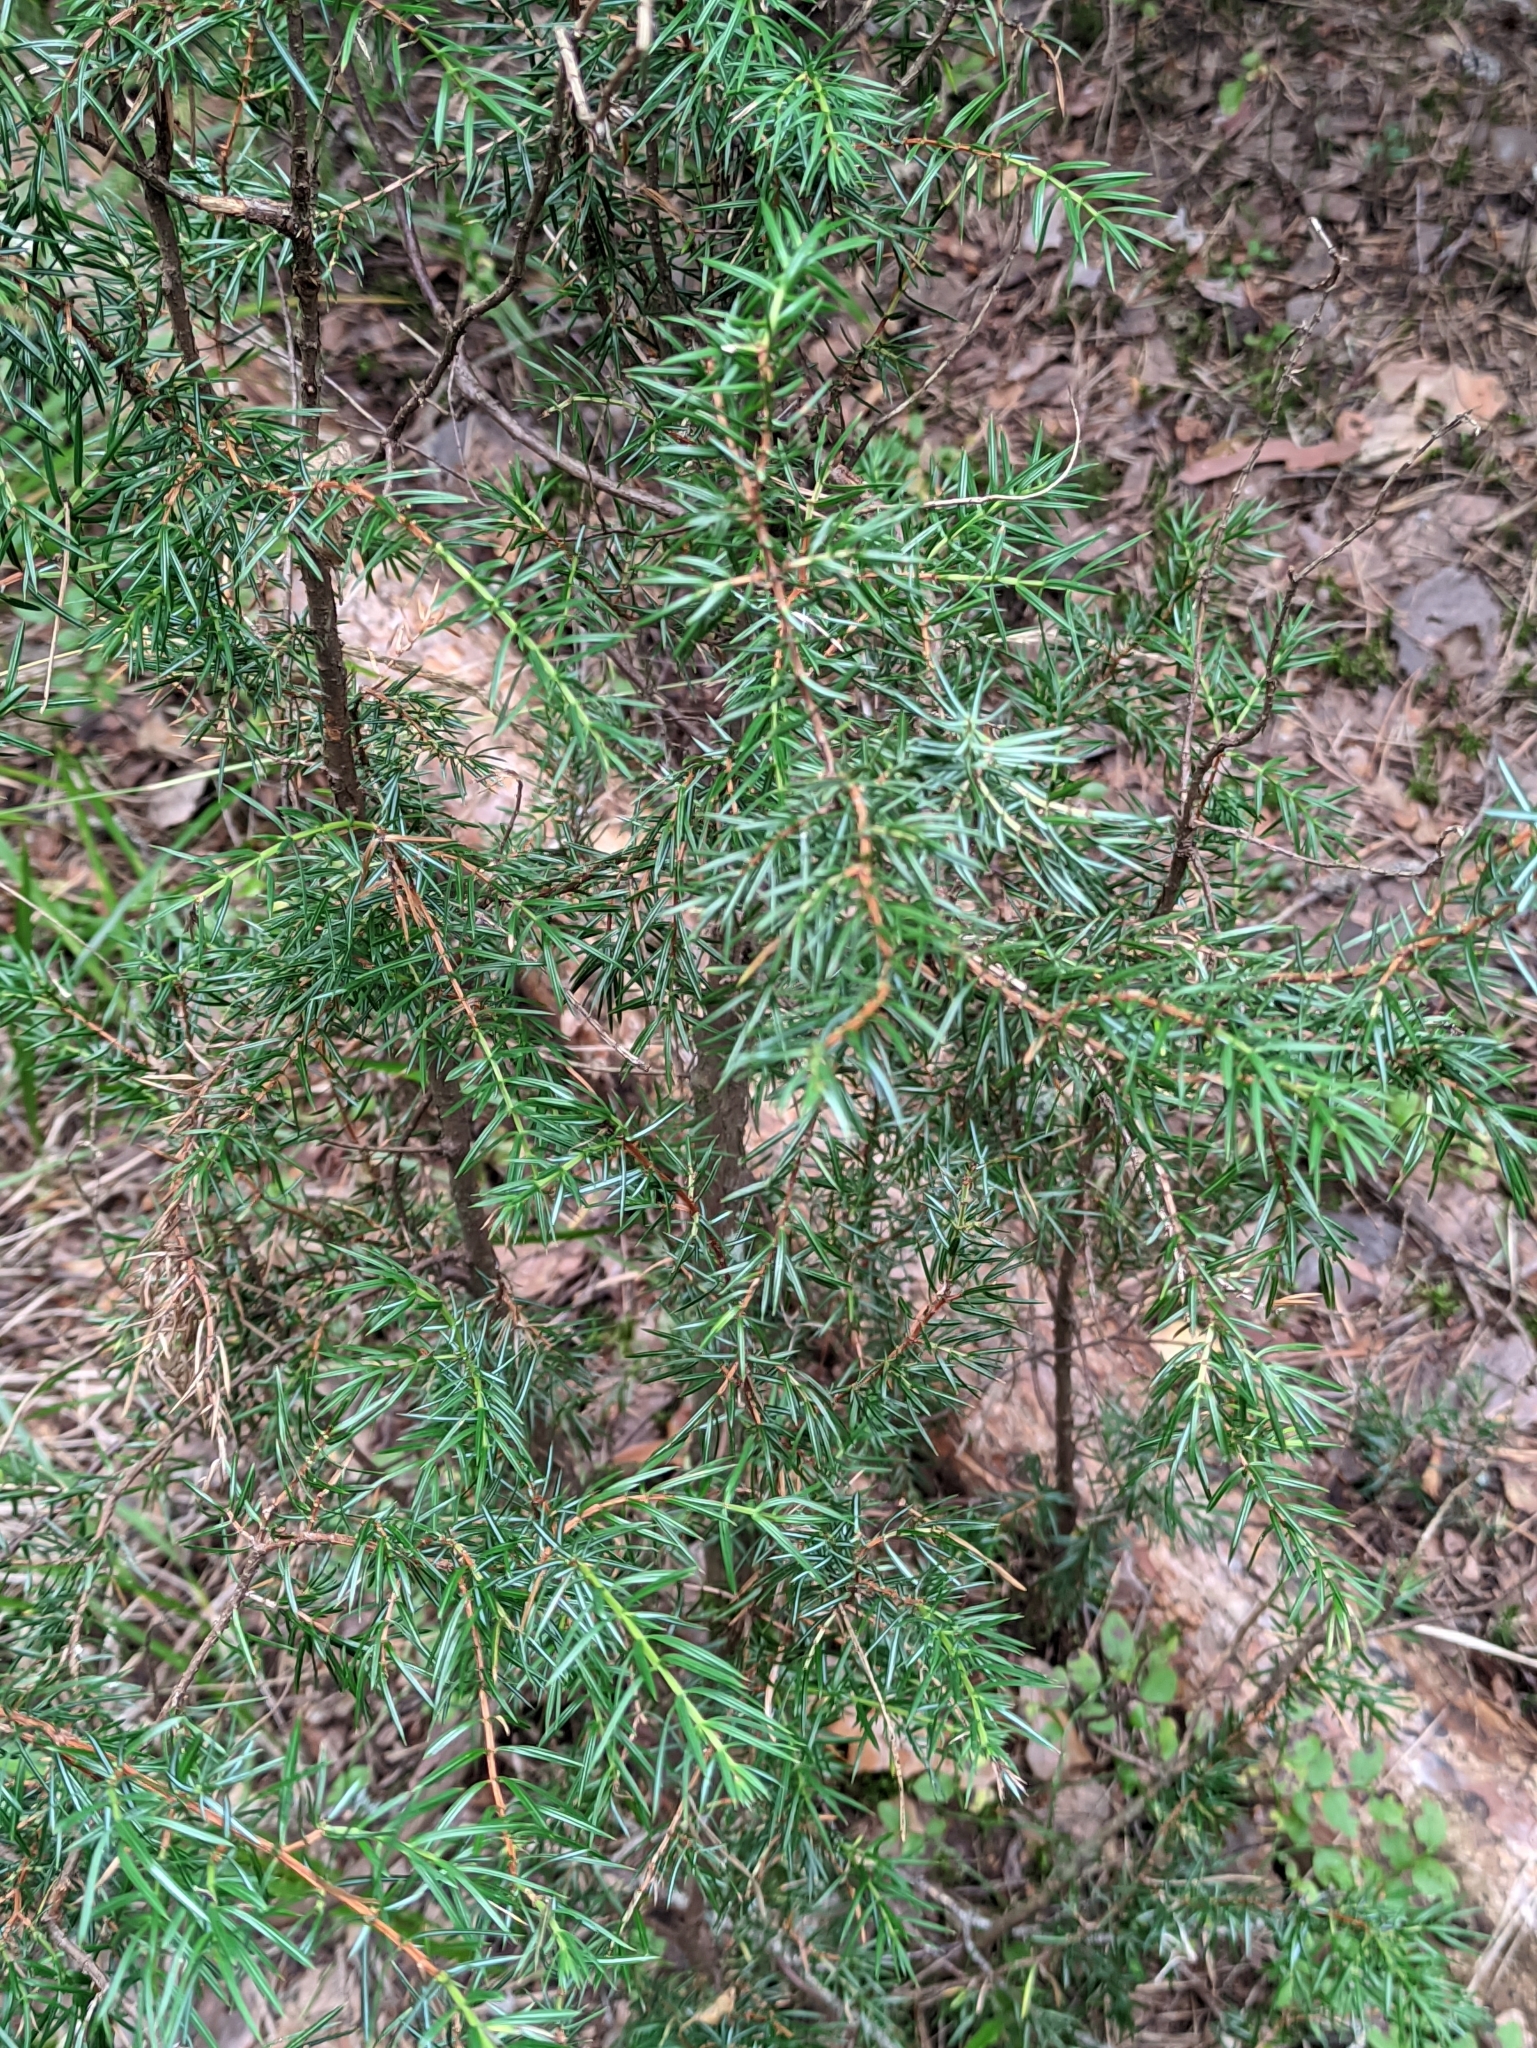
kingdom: Plantae
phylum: Tracheophyta
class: Pinopsida
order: Pinales
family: Cupressaceae
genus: Juniperus
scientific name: Juniperus communis
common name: Common juniper
